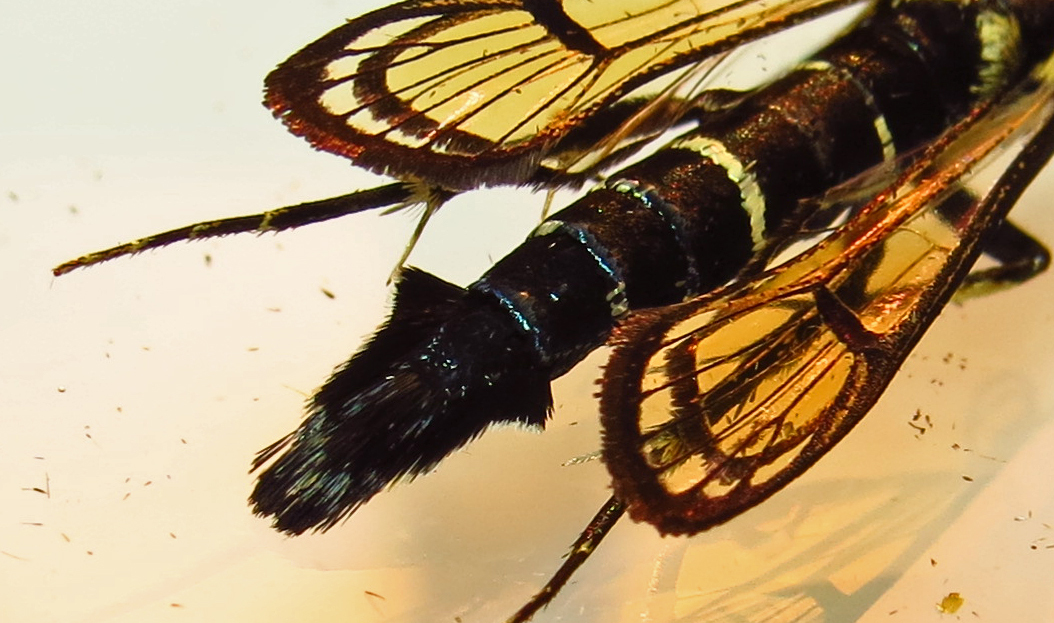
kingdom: Animalia
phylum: Arthropoda
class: Insecta
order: Lepidoptera
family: Sesiidae
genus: Synanthedon
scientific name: Synanthedon exitiosa
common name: Peachtree borer moth
